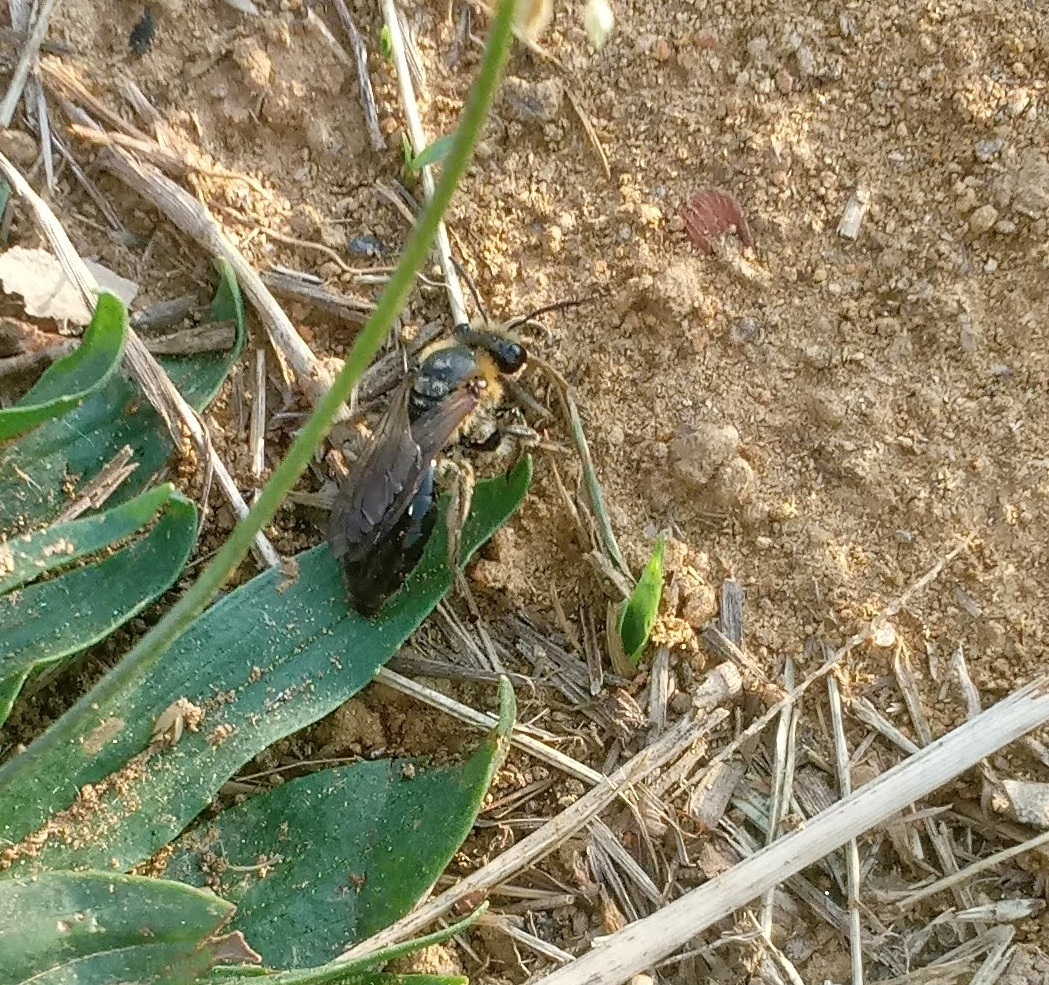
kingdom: Animalia
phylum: Arthropoda
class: Insecta
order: Hymenoptera
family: Colletidae
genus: Colletes
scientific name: Colletes thoracicus
